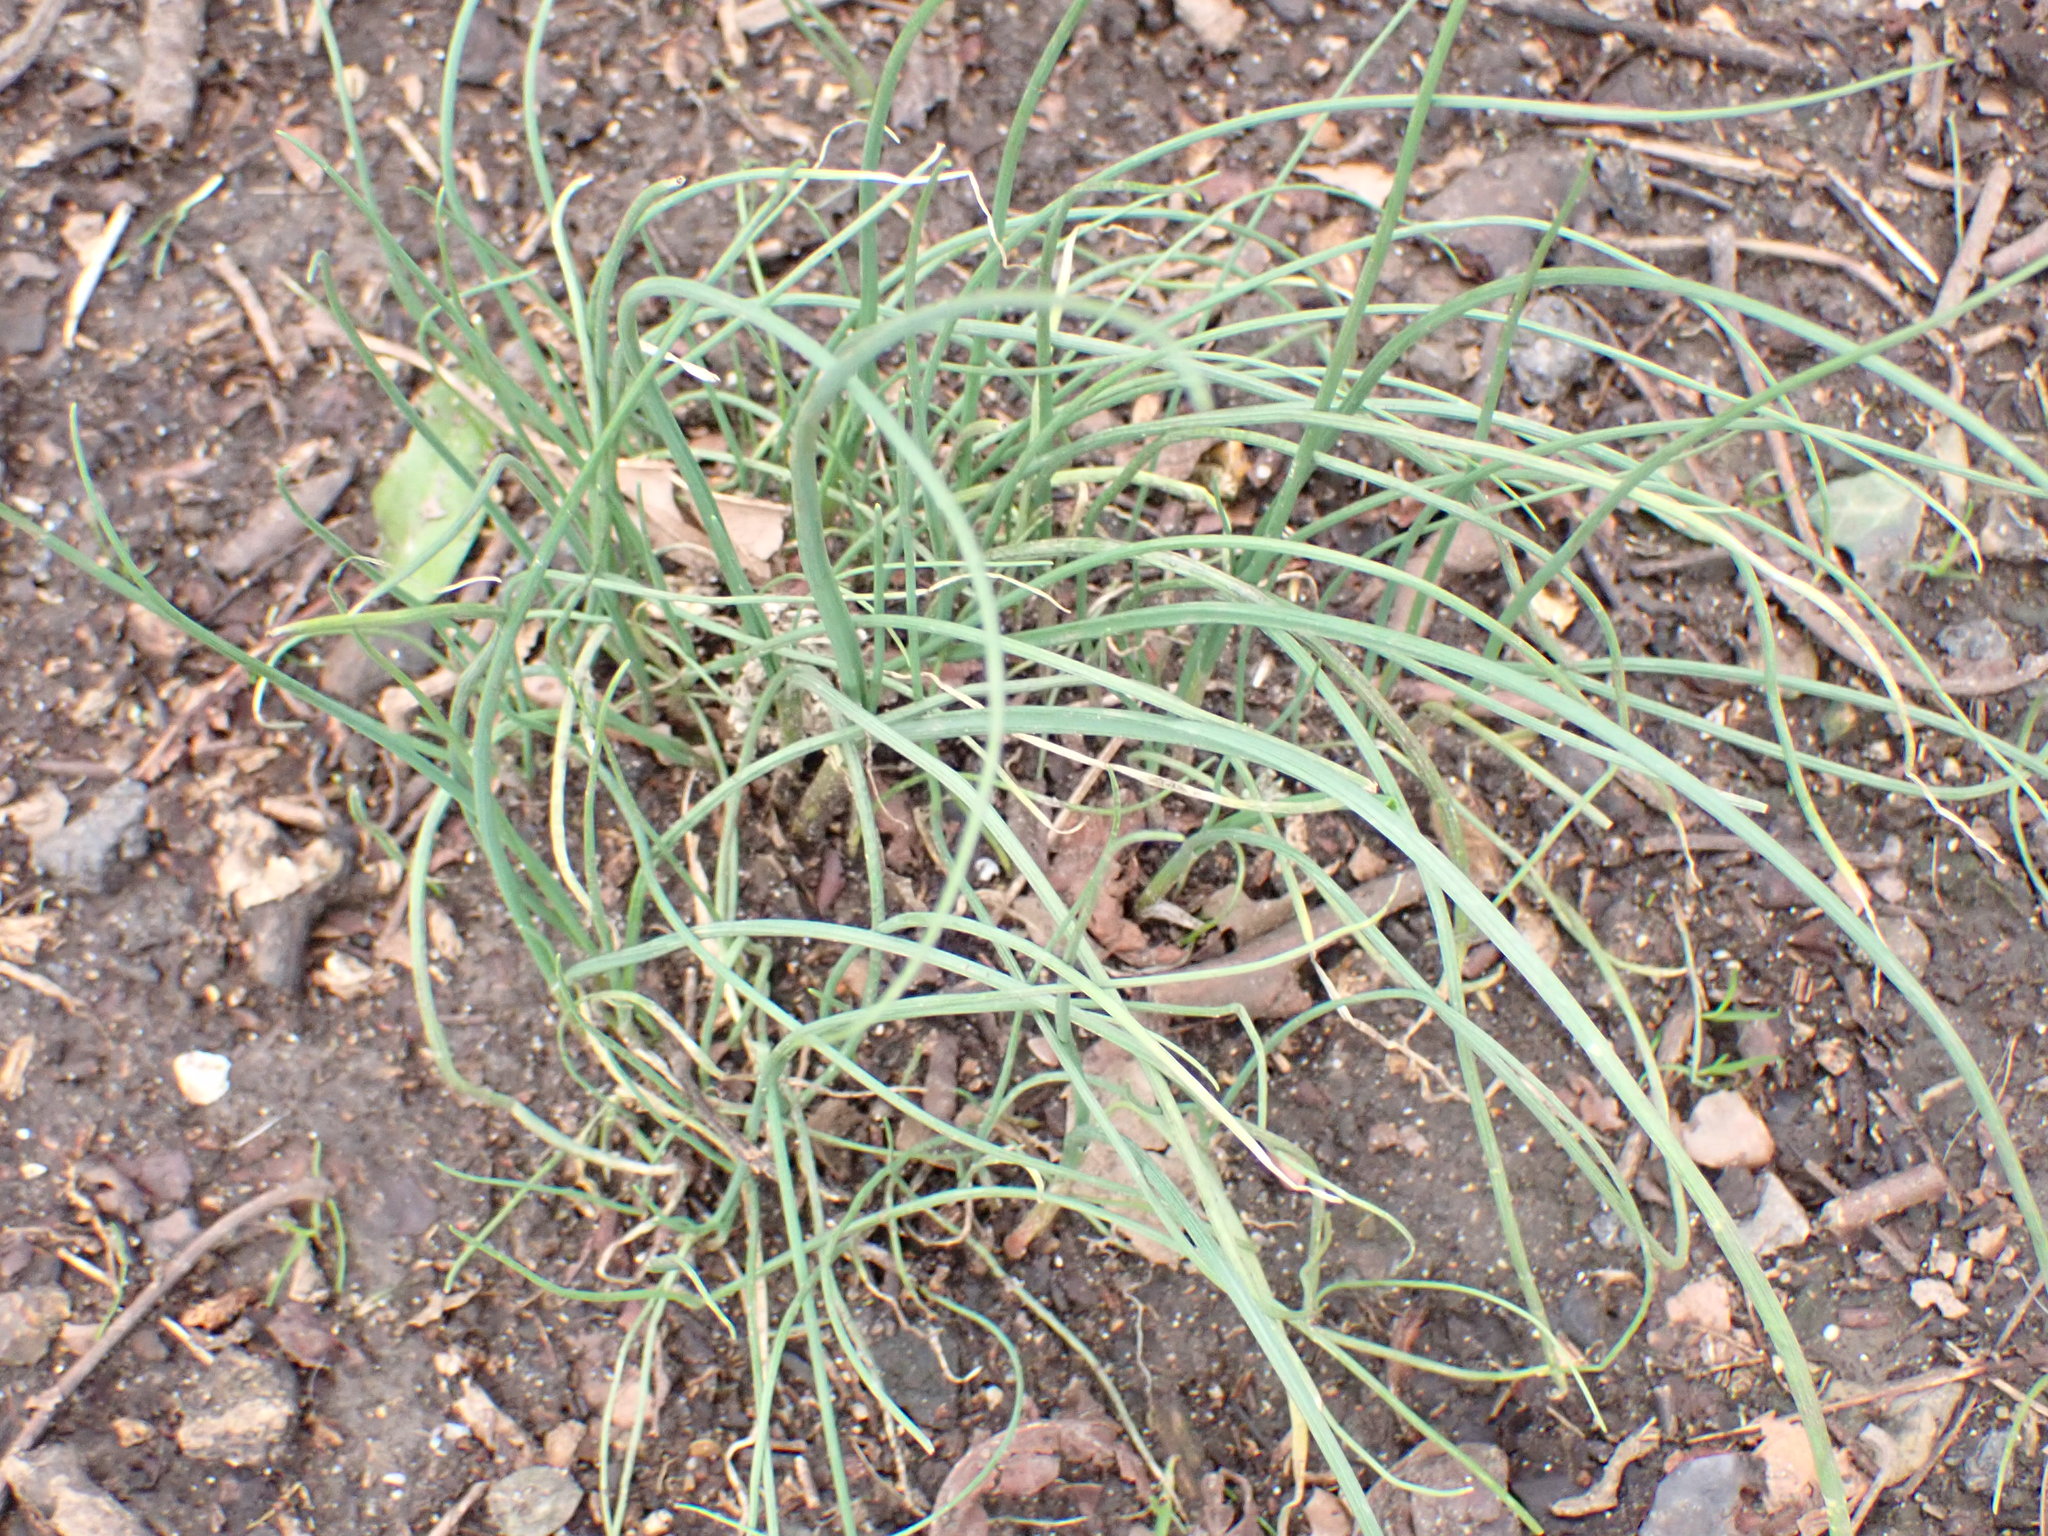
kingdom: Plantae
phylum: Tracheophyta
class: Liliopsida
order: Asparagales
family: Amaryllidaceae
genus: Allium
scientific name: Allium vineale
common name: Crow garlic
